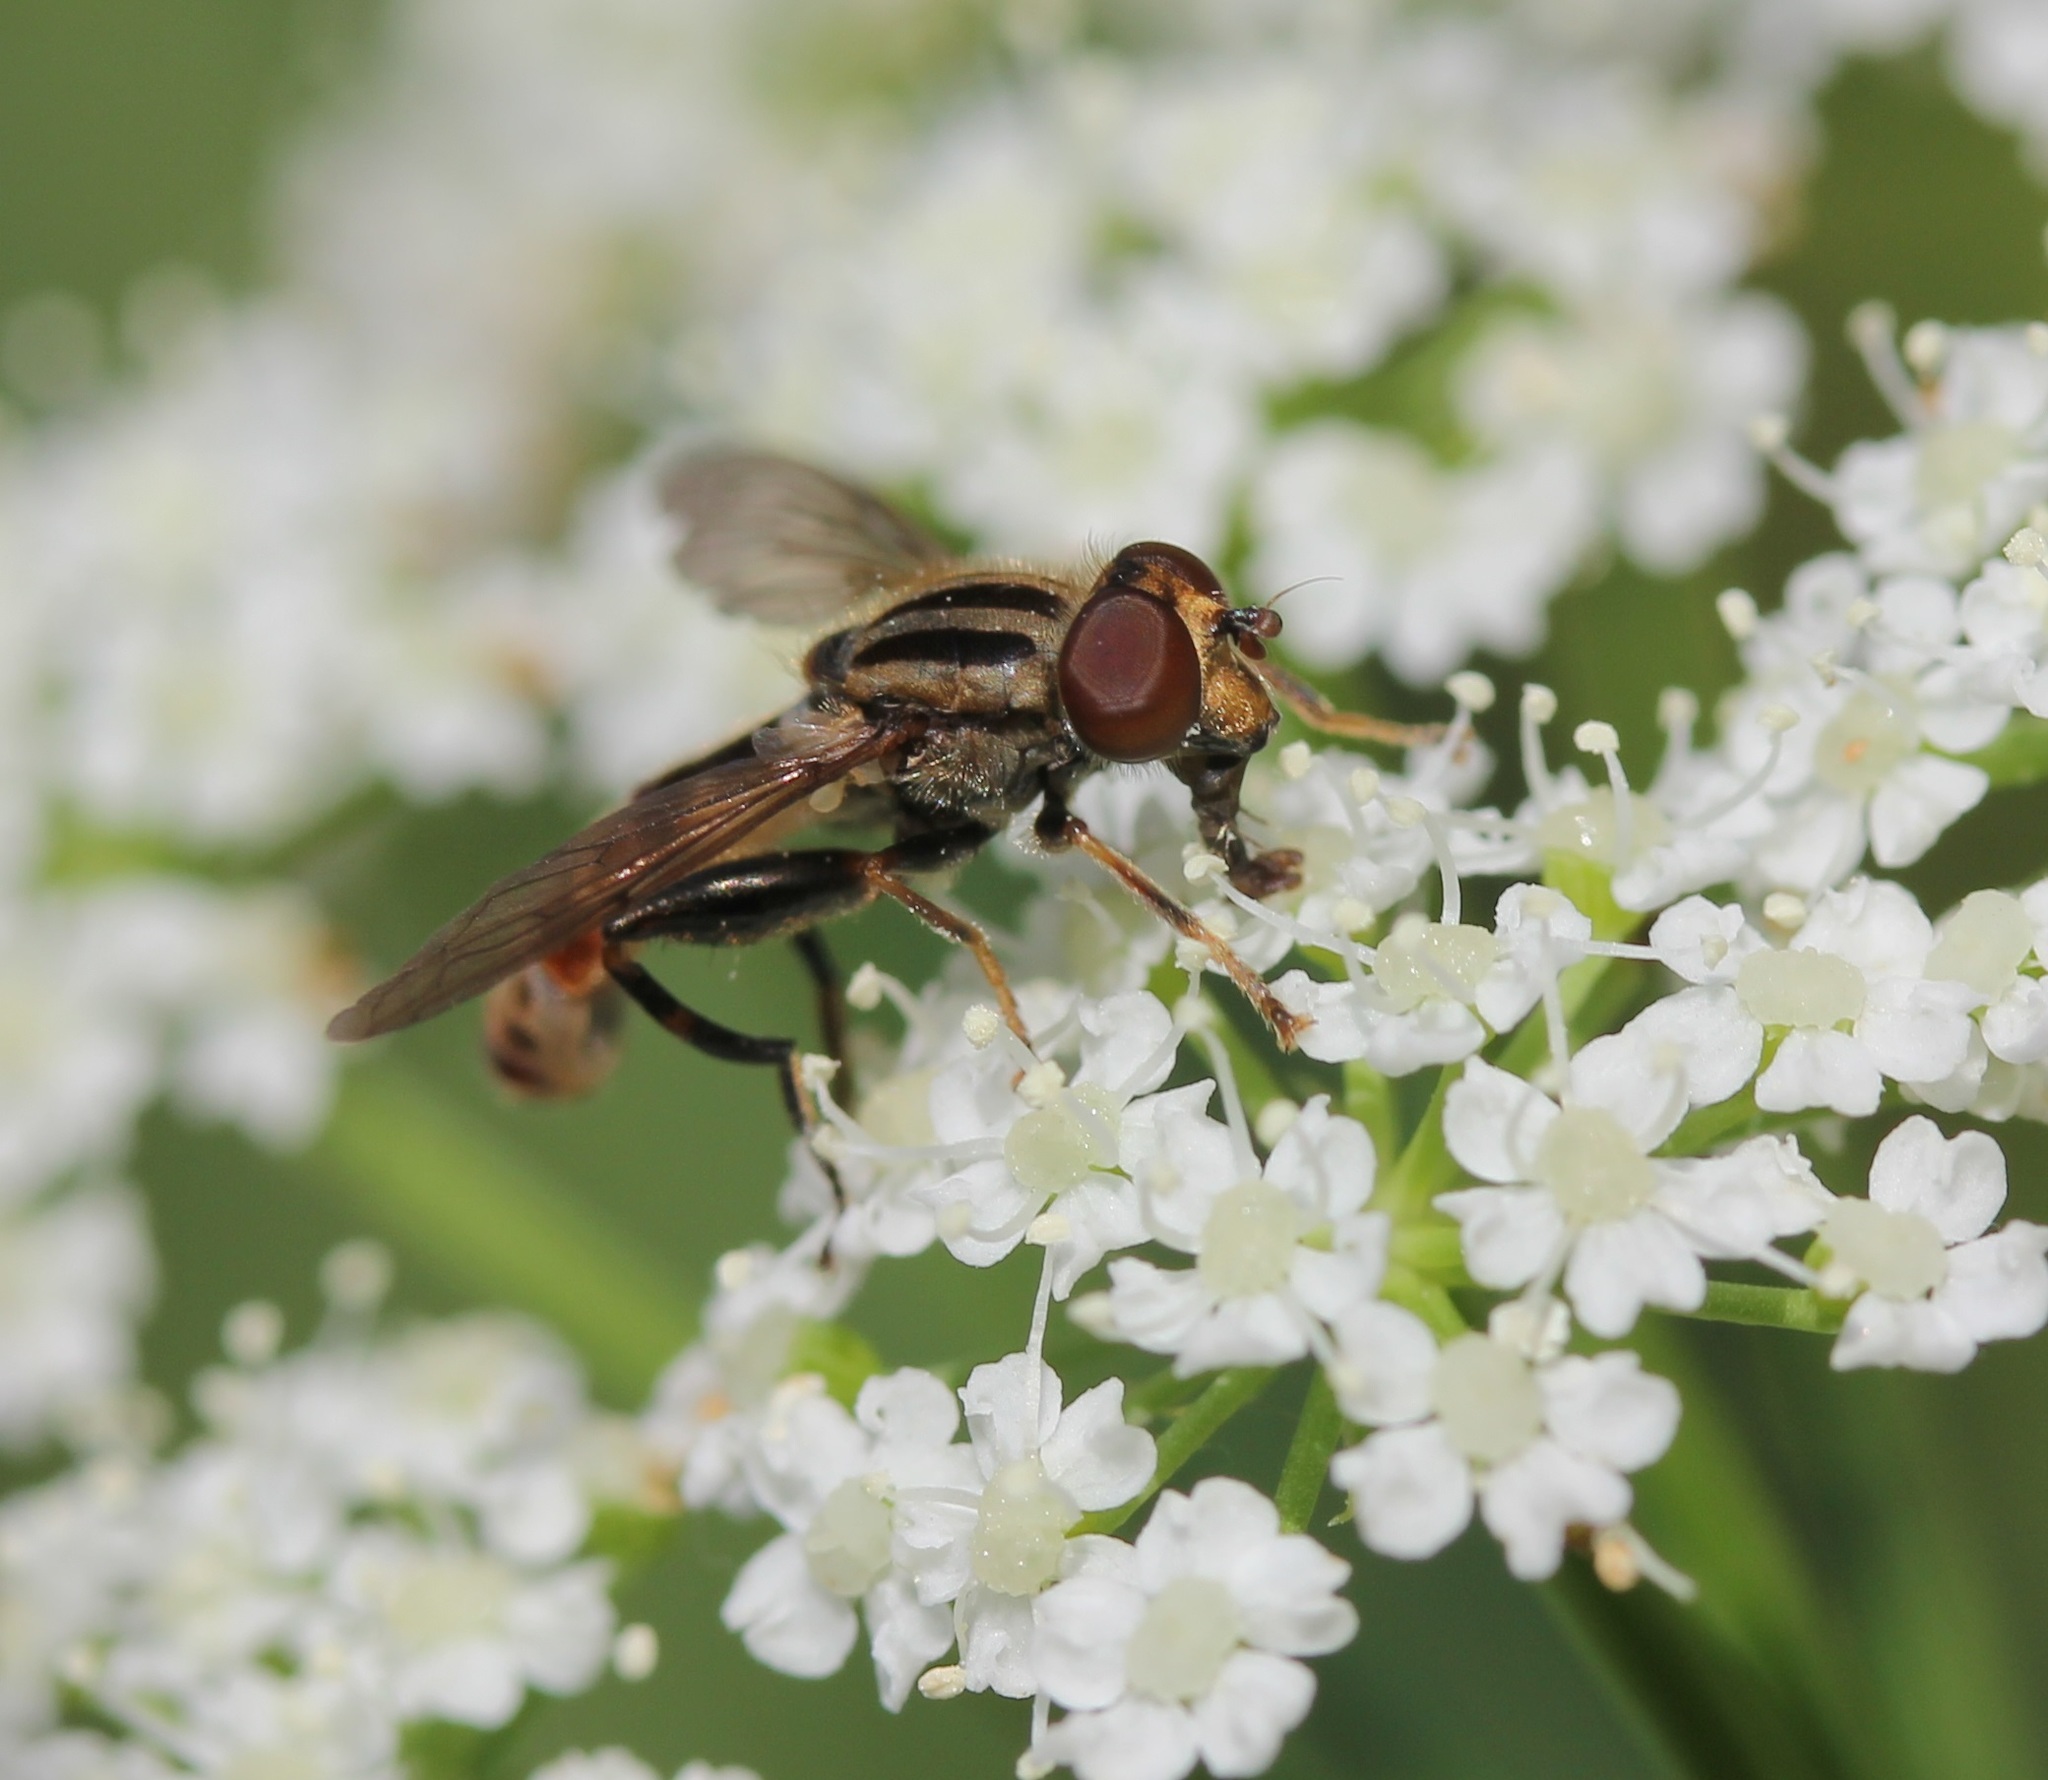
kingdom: Animalia
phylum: Arthropoda
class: Insecta
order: Diptera
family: Syrphidae
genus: Anasimyia
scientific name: Anasimyia distinctus
